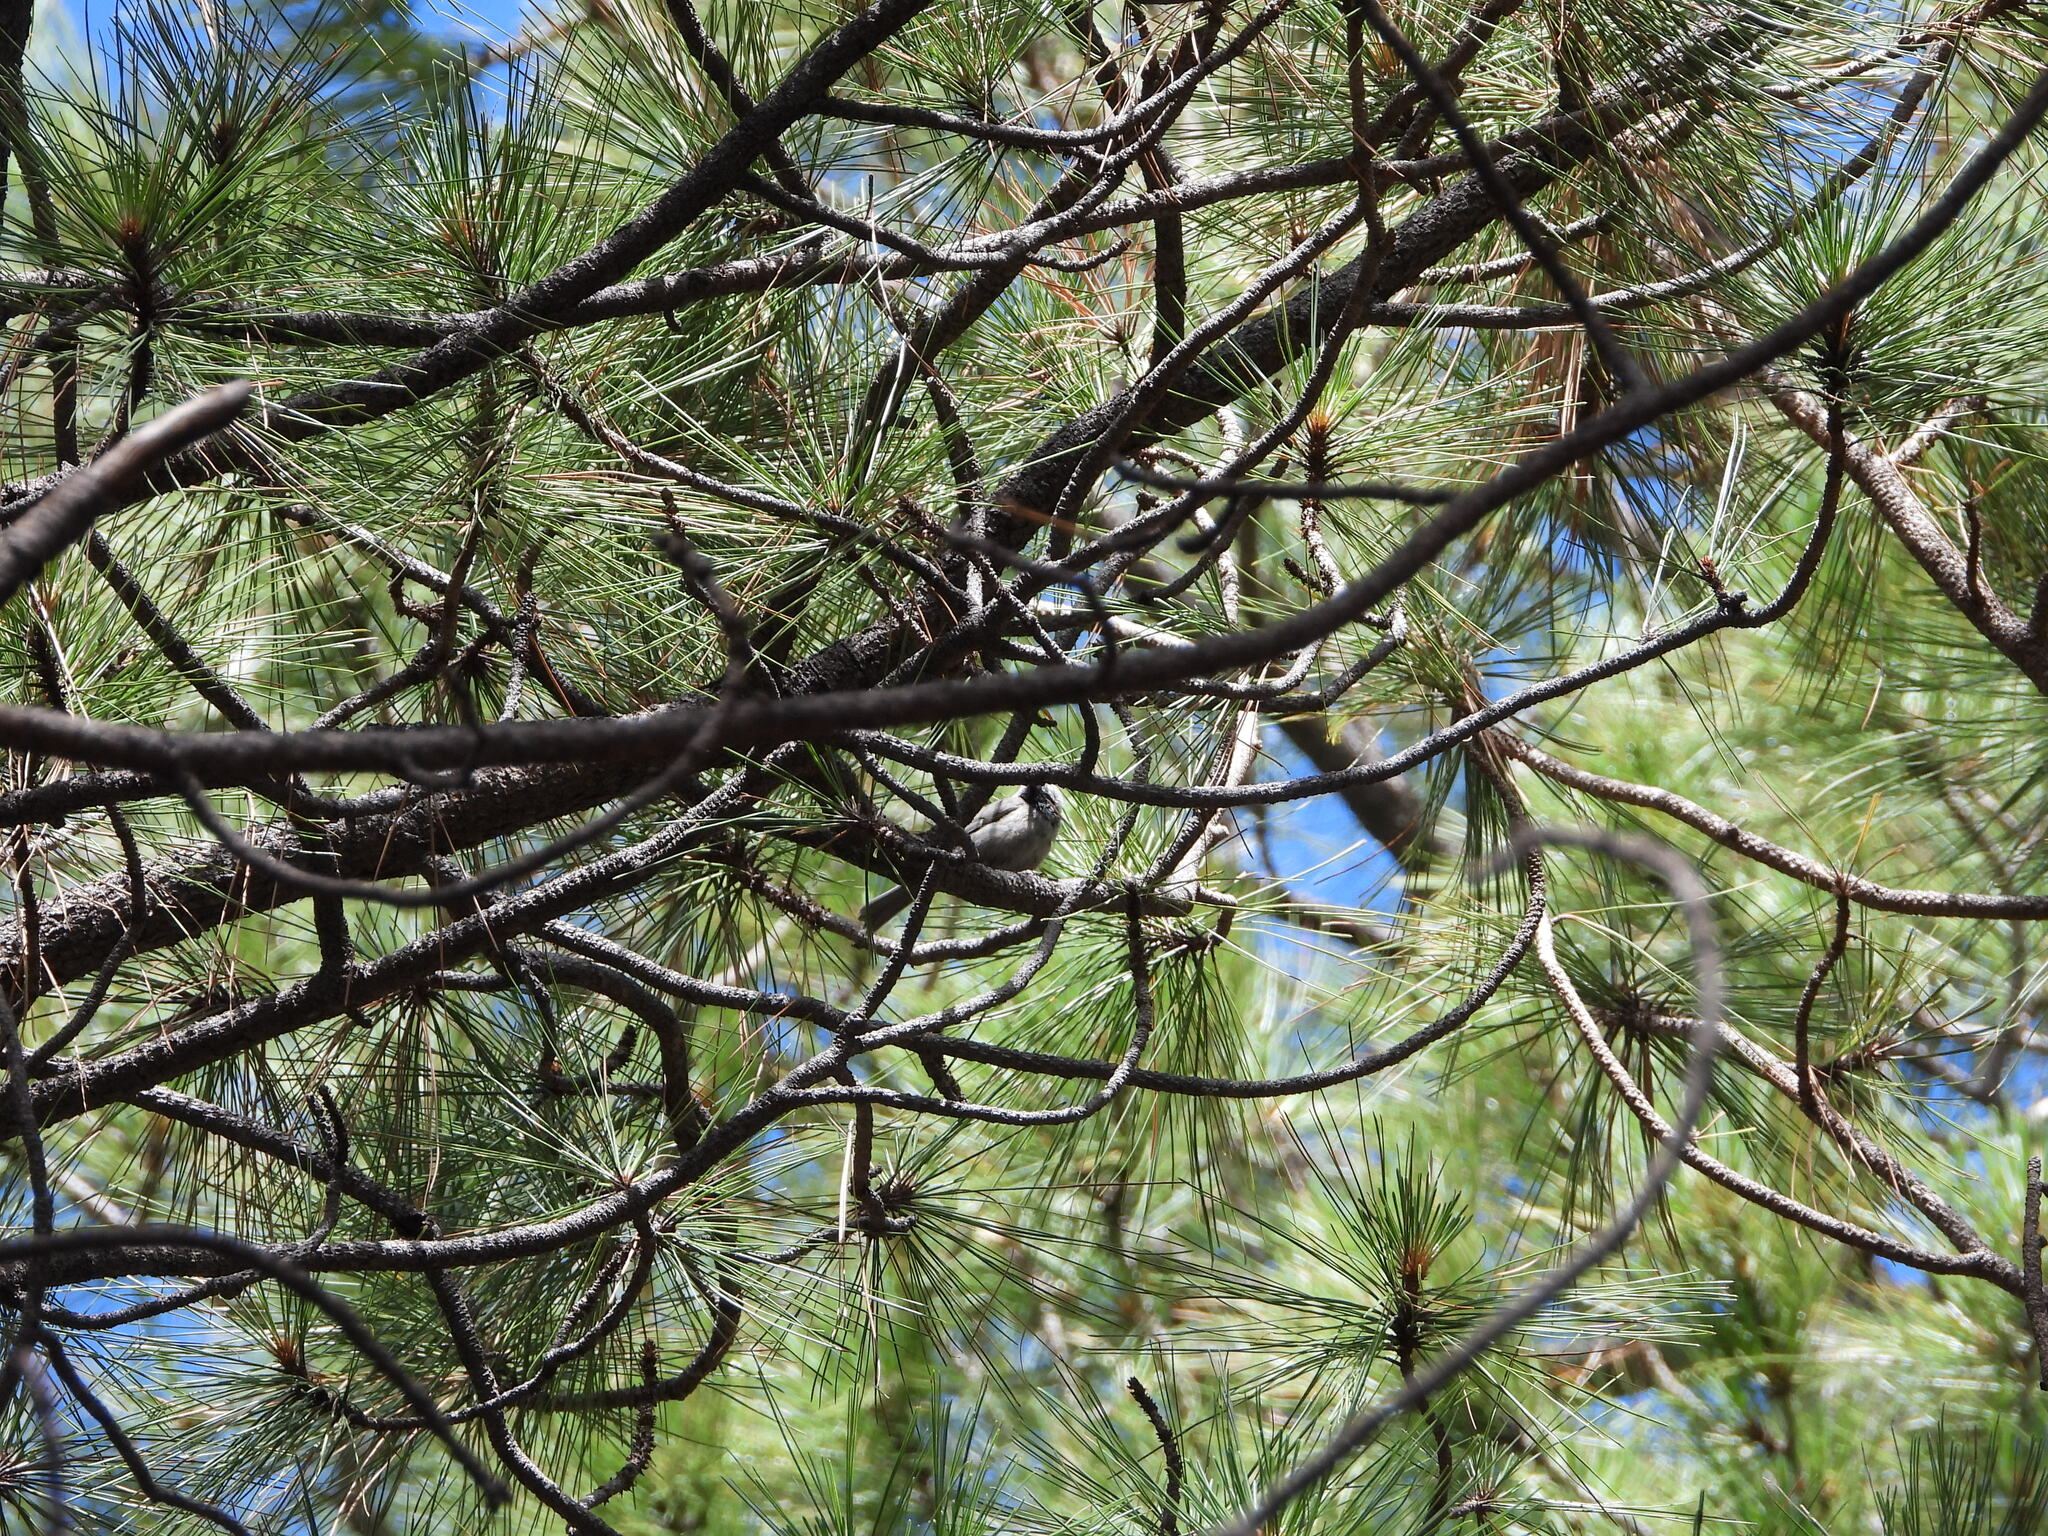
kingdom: Animalia
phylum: Chordata
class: Aves
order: Passeriformes
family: Paridae
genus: Poecile
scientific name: Poecile gambeli
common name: Mountain chickadee
